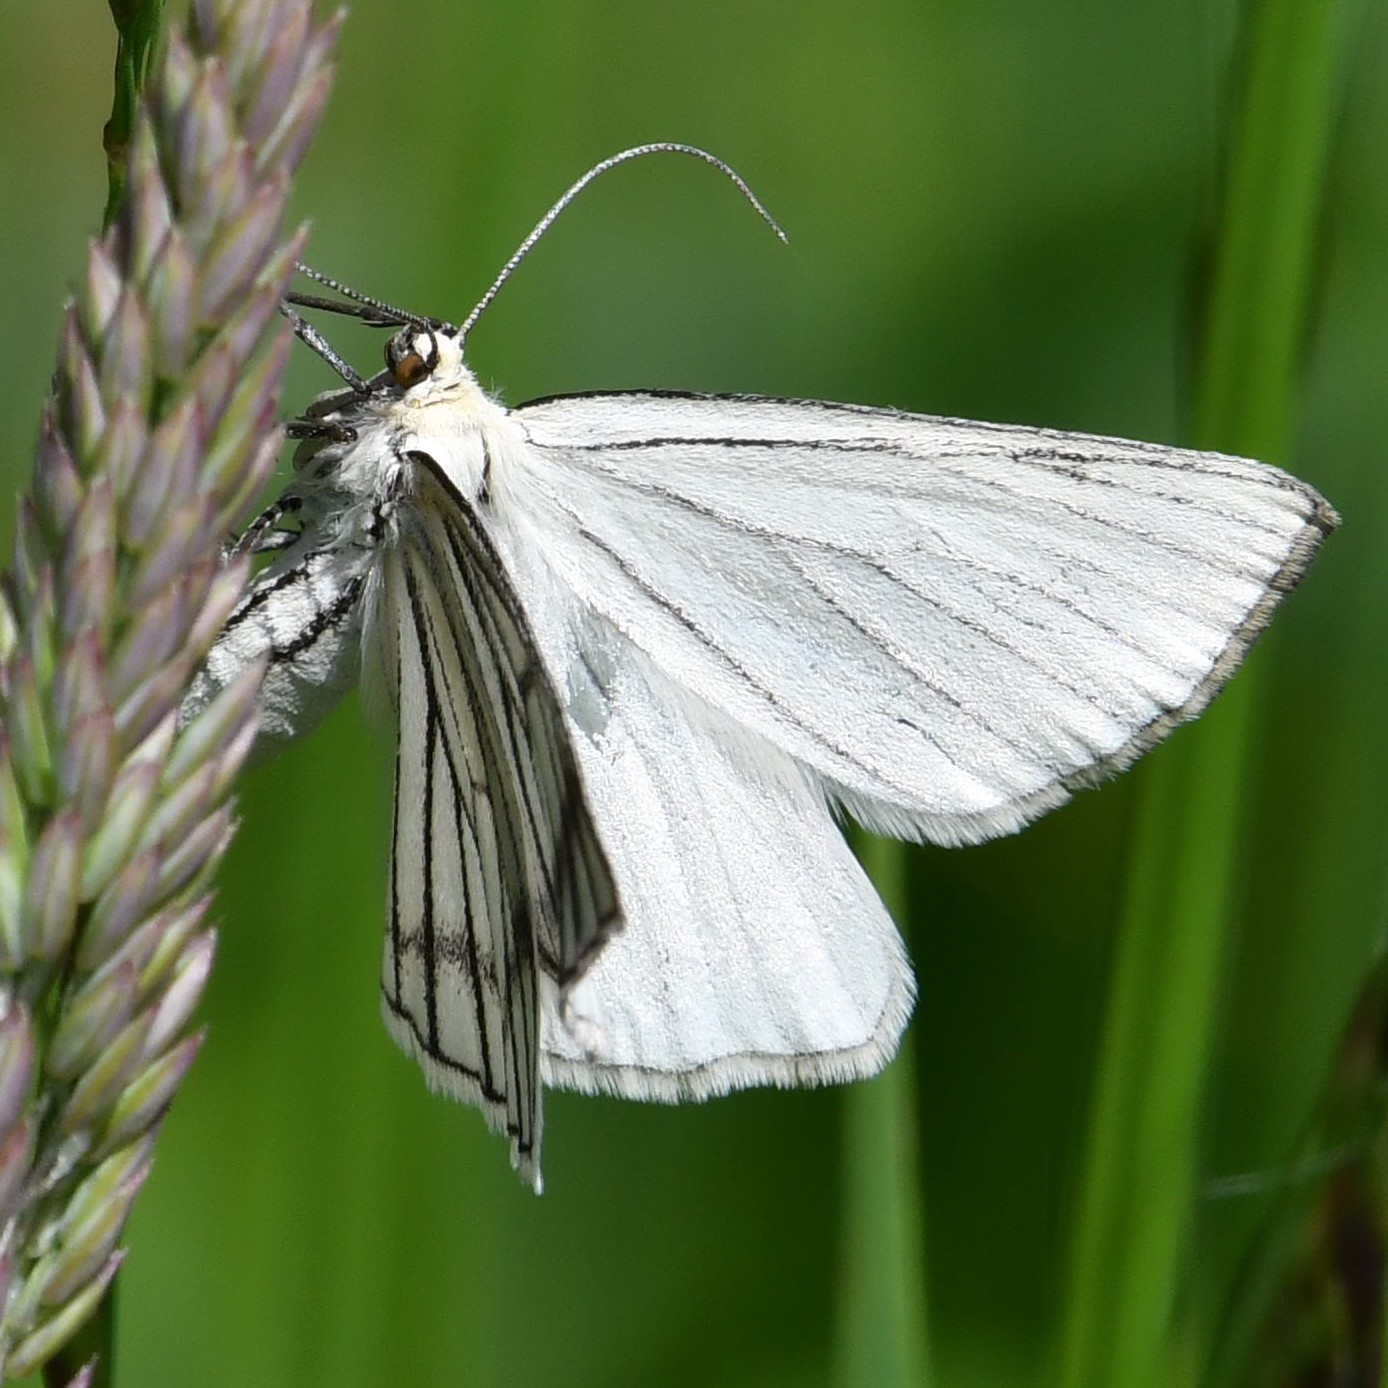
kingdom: Animalia
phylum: Arthropoda
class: Insecta
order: Lepidoptera
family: Geometridae
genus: Siona
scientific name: Siona lineata
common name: Black-veined moth
